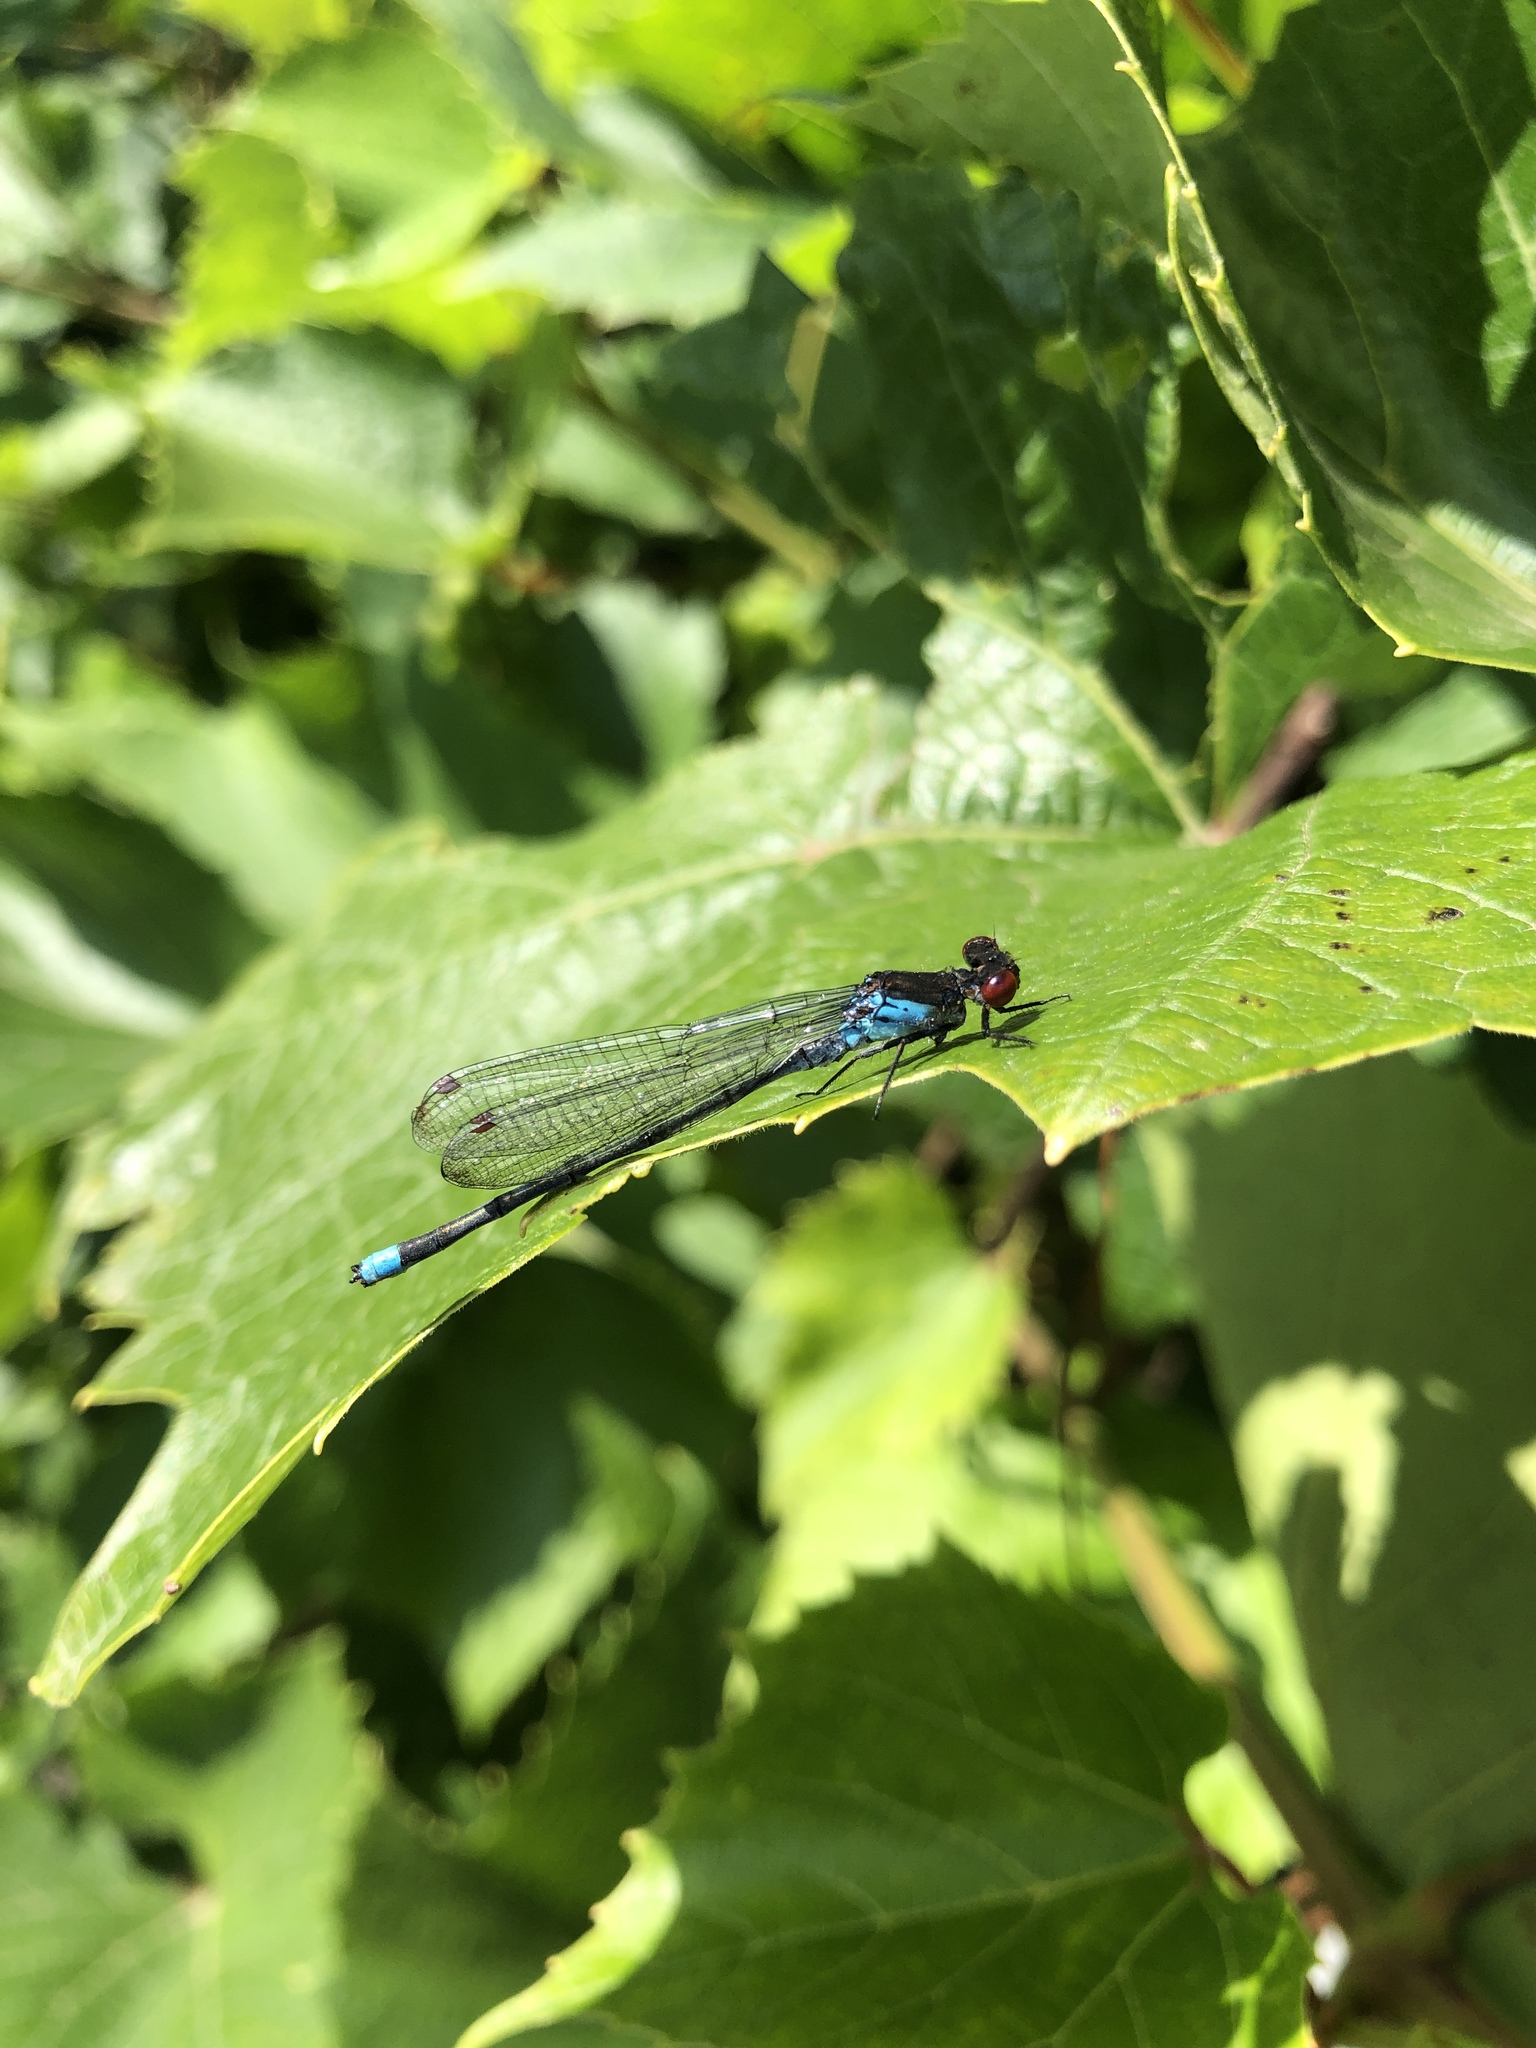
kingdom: Animalia
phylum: Arthropoda
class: Insecta
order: Odonata
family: Coenagrionidae
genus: Erythromma
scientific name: Erythromma najas
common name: Red-eyed damselfly
